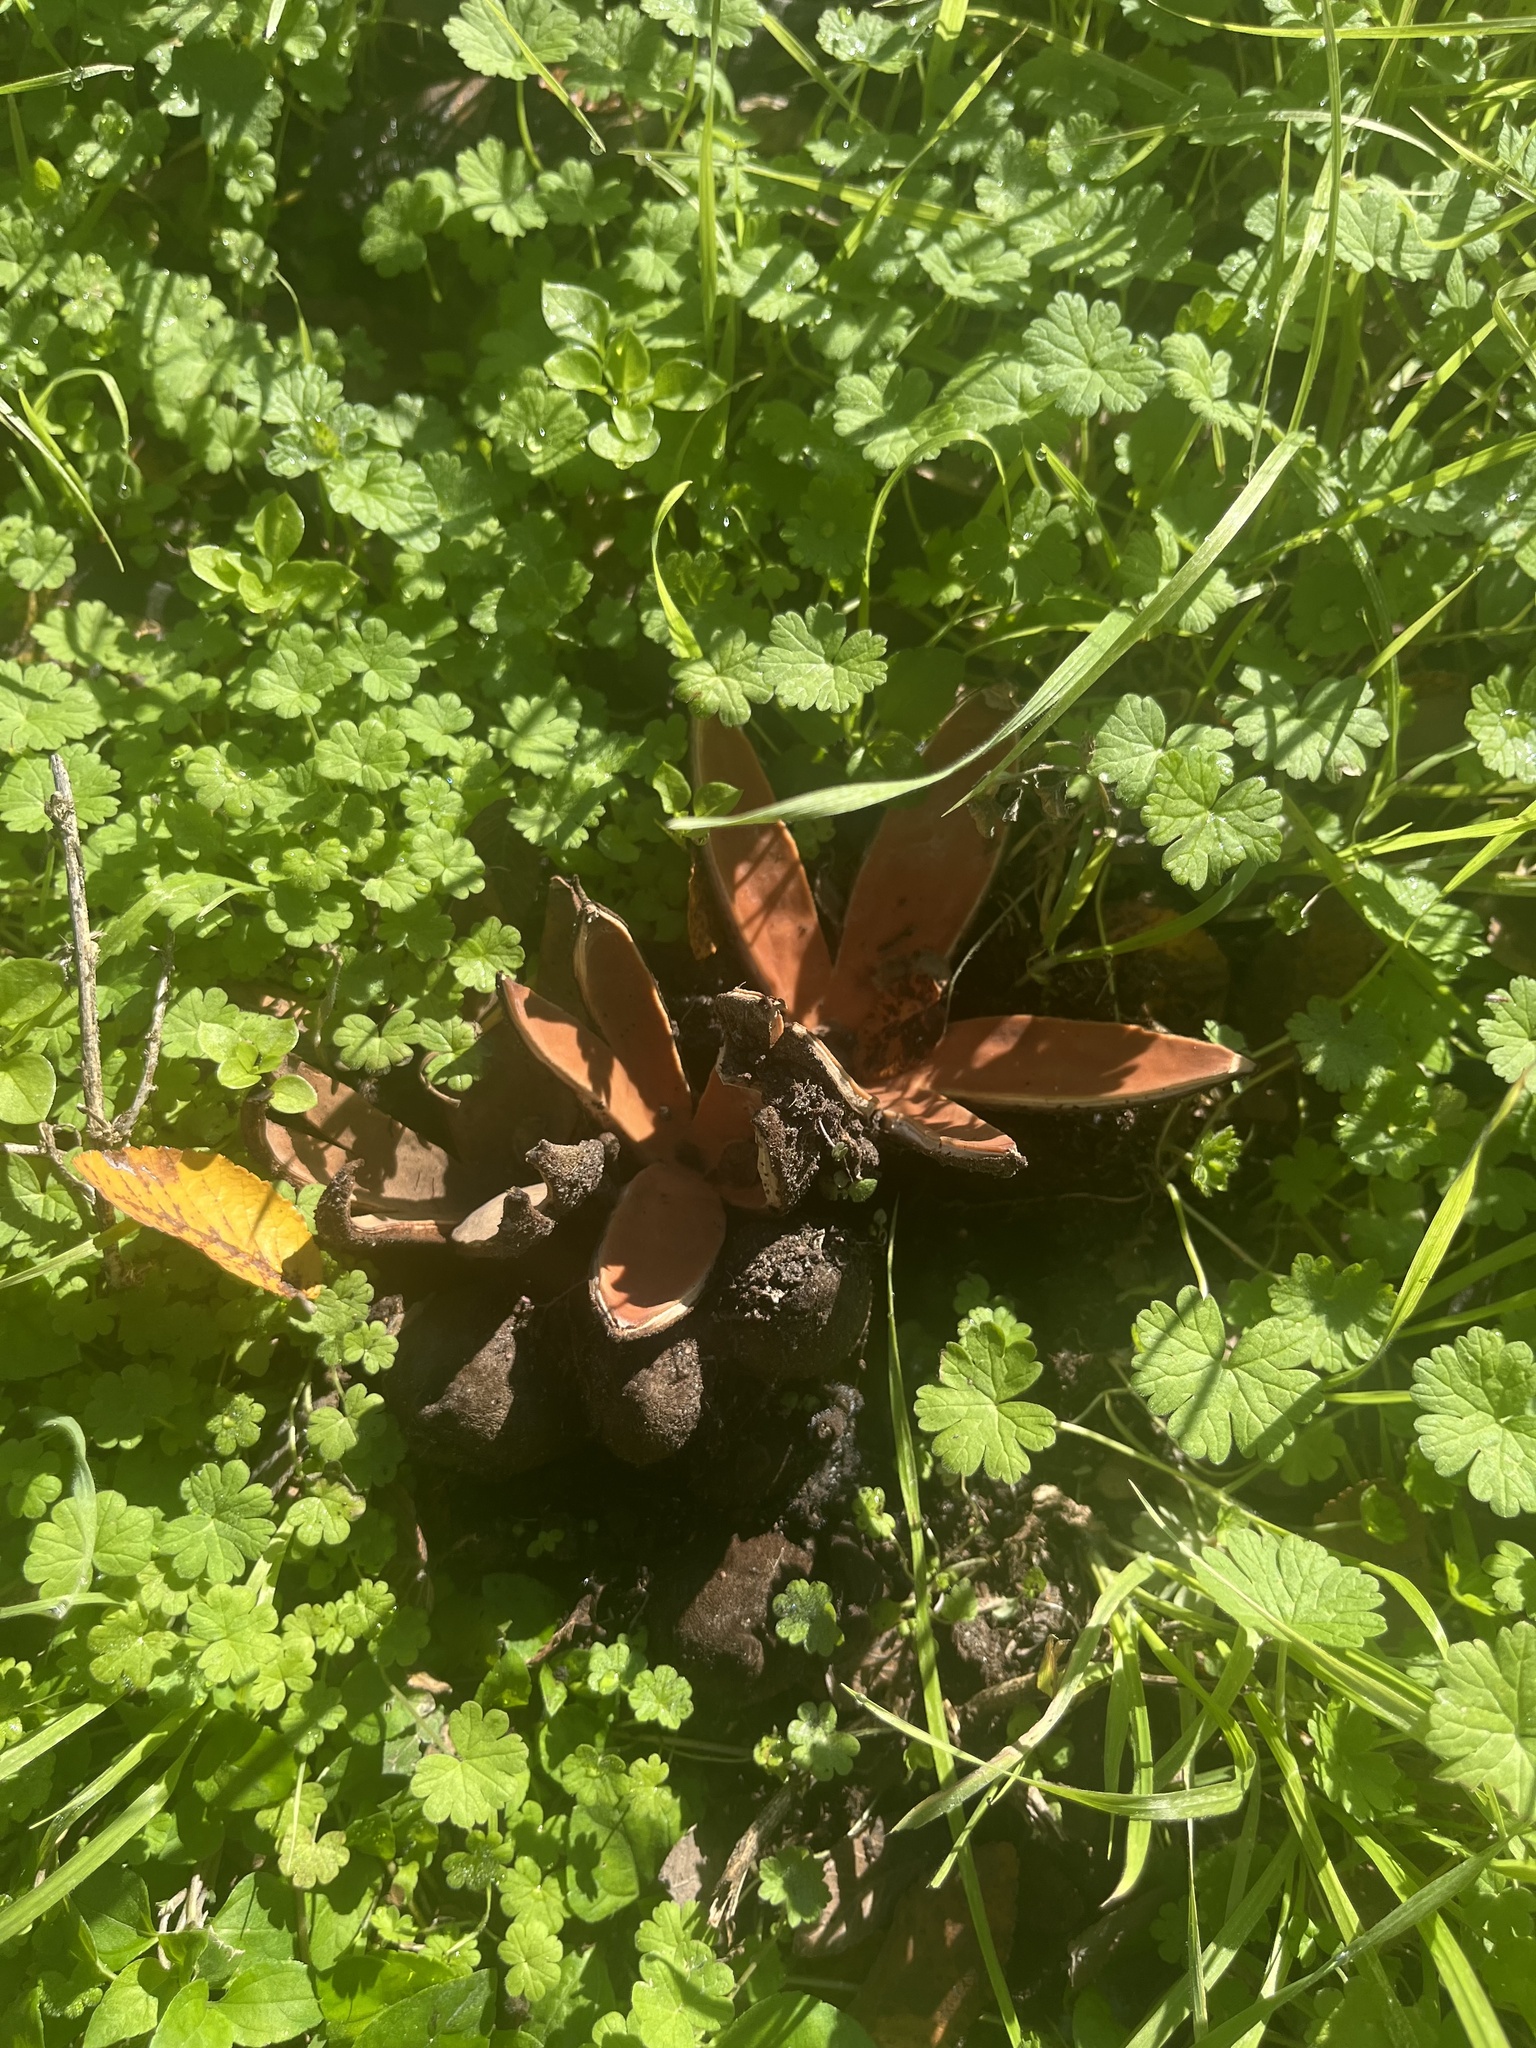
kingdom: Fungi
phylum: Ascomycota
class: Pezizomycetes
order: Pezizales
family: Chorioactidaceae
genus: Chorioactis
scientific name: Chorioactis geaster
